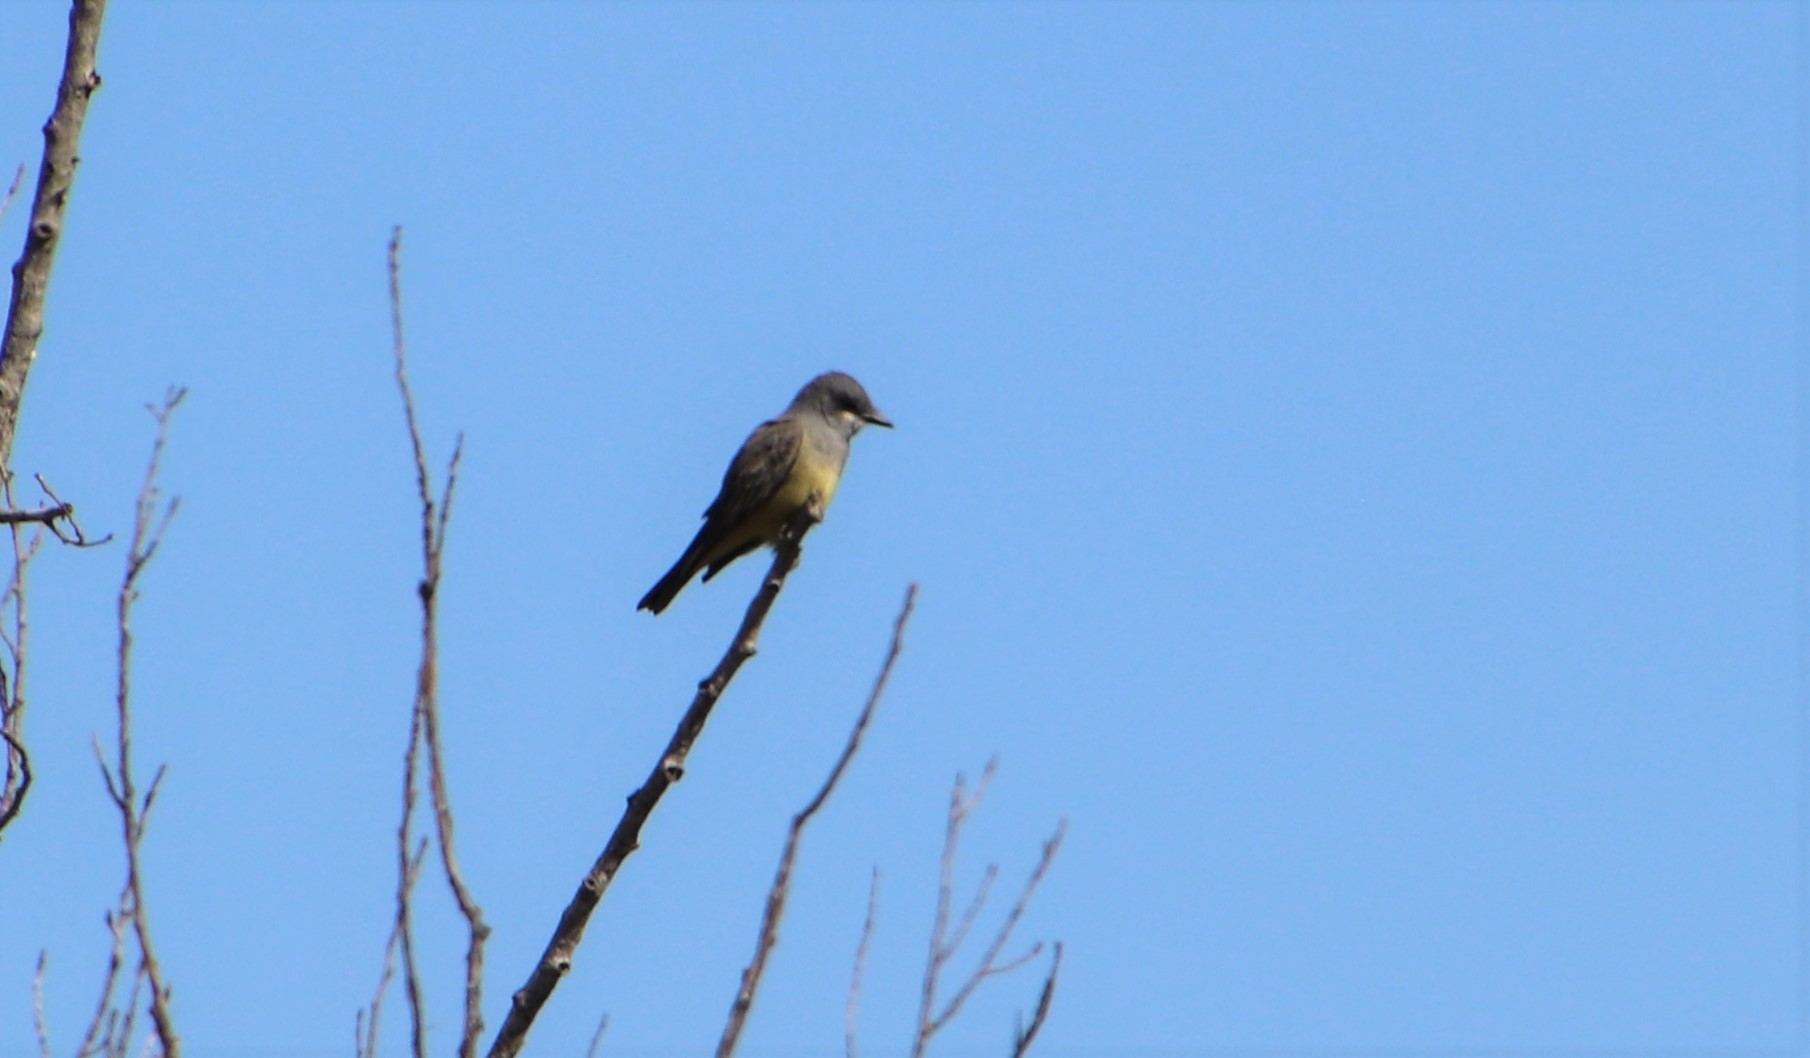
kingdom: Animalia
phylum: Chordata
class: Aves
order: Passeriformes
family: Tyrannidae
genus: Tyrannus
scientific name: Tyrannus vociferans
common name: Cassin's kingbird
